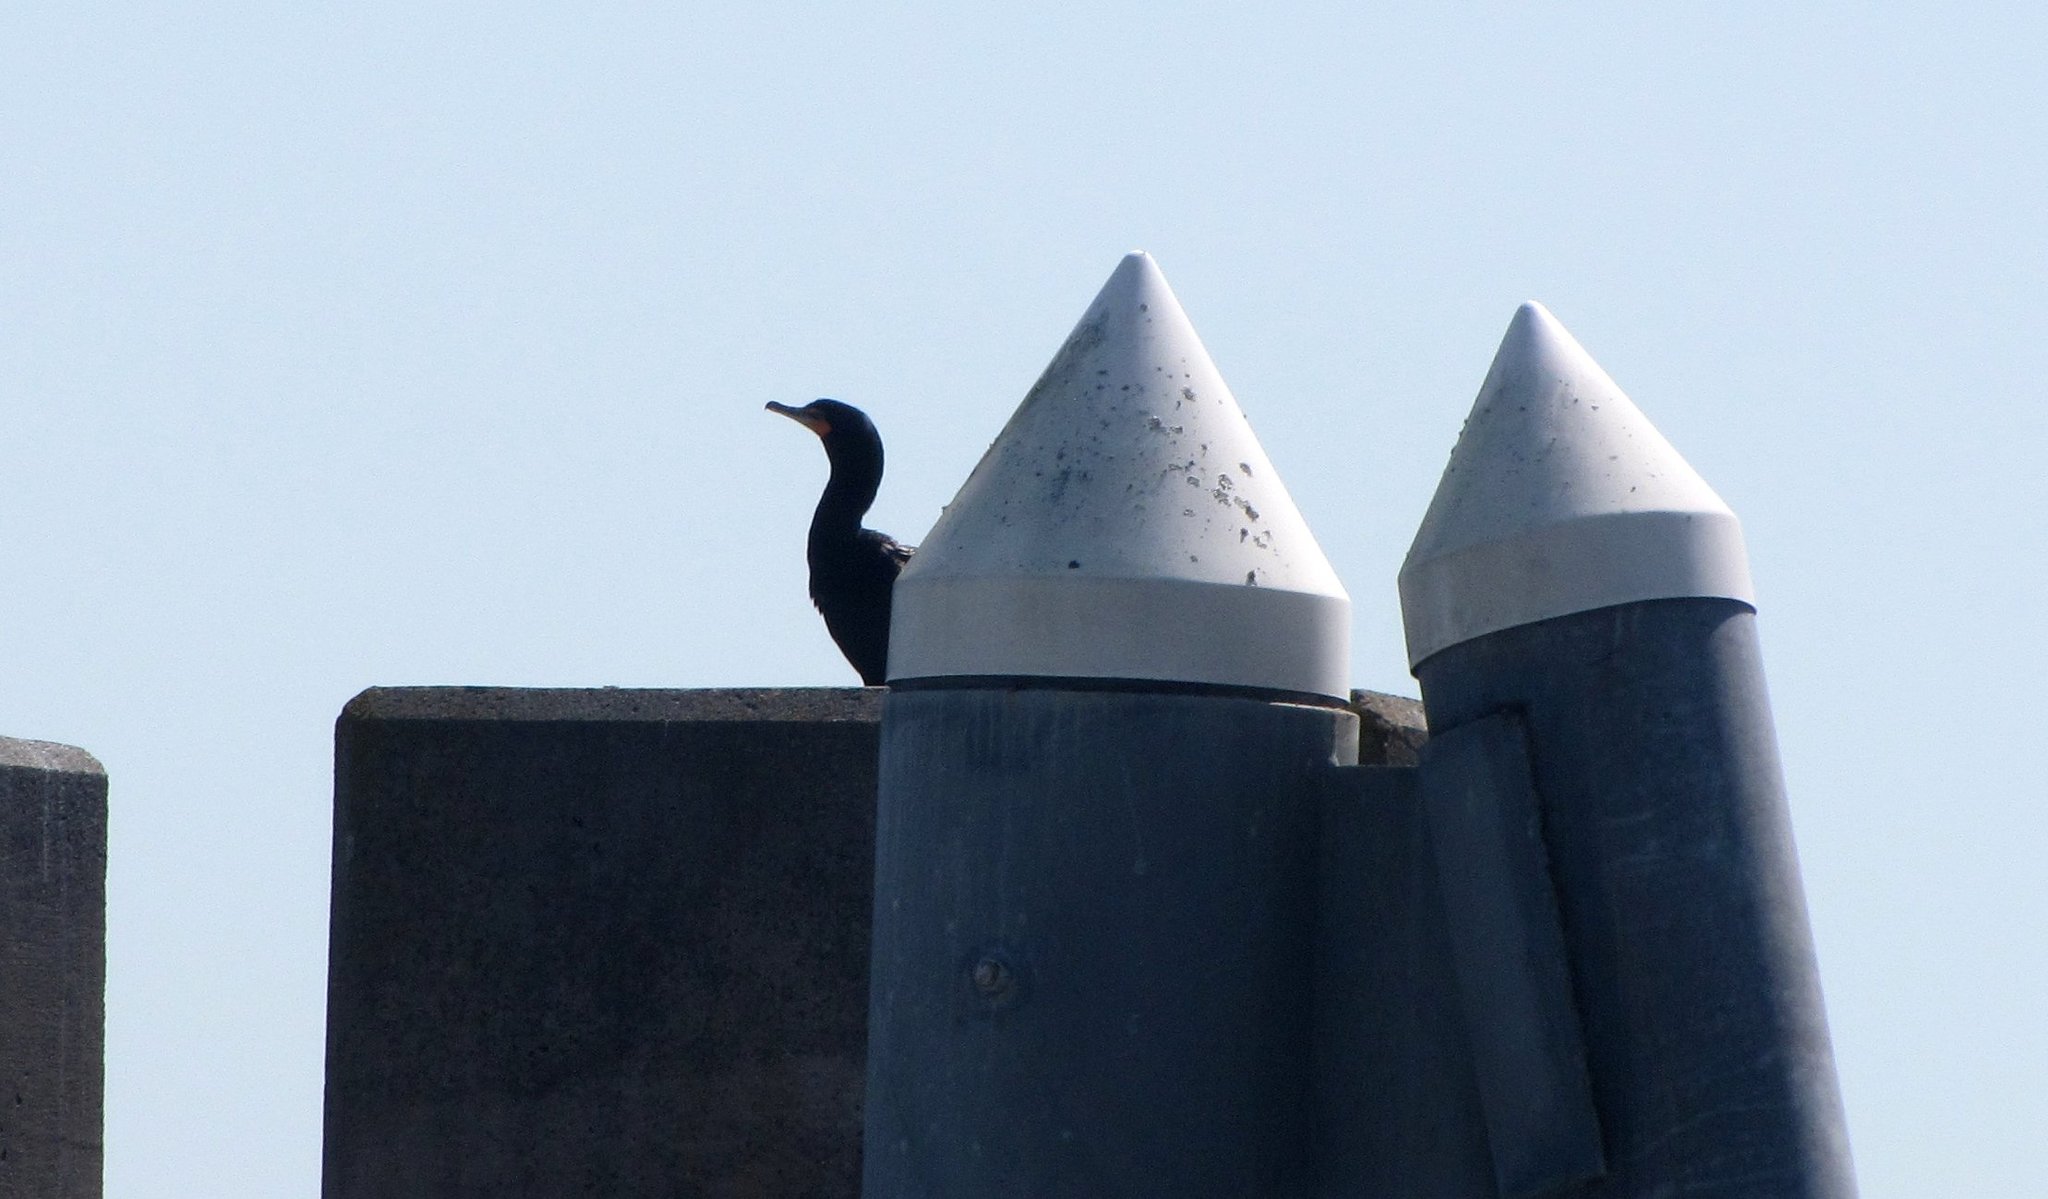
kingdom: Animalia
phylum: Chordata
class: Aves
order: Suliformes
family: Phalacrocoracidae
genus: Phalacrocorax
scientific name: Phalacrocorax auritus
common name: Double-crested cormorant
